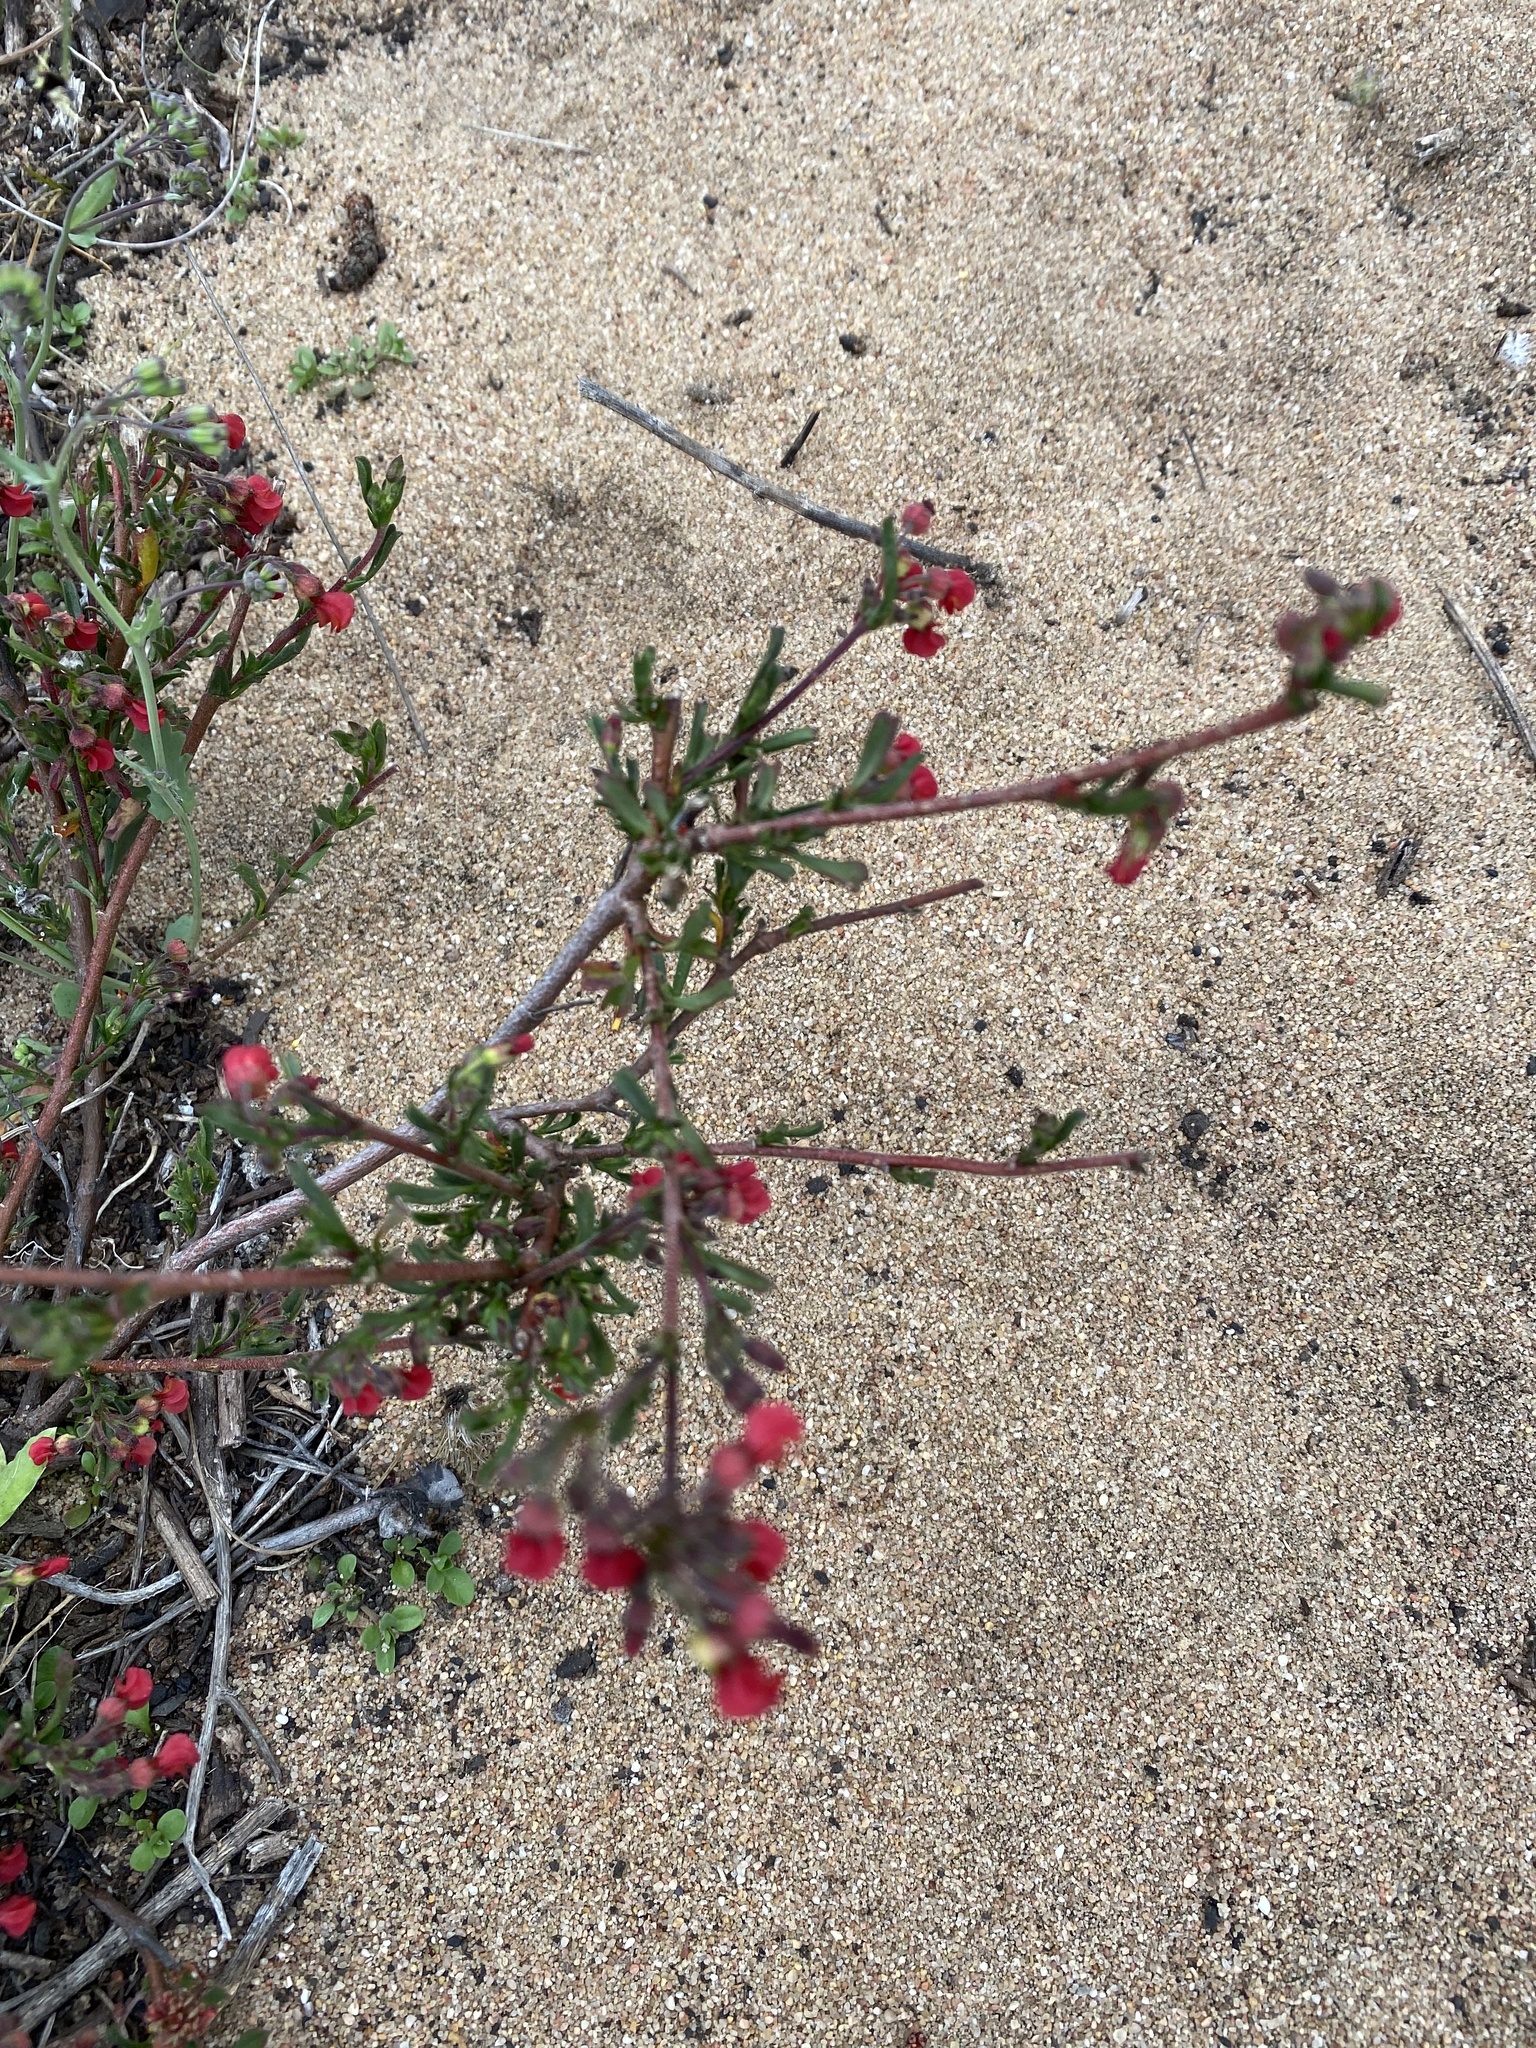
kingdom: Plantae
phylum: Tracheophyta
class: Magnoliopsida
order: Malvales
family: Malvaceae
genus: Hermannia
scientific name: Hermannia joubertiana
